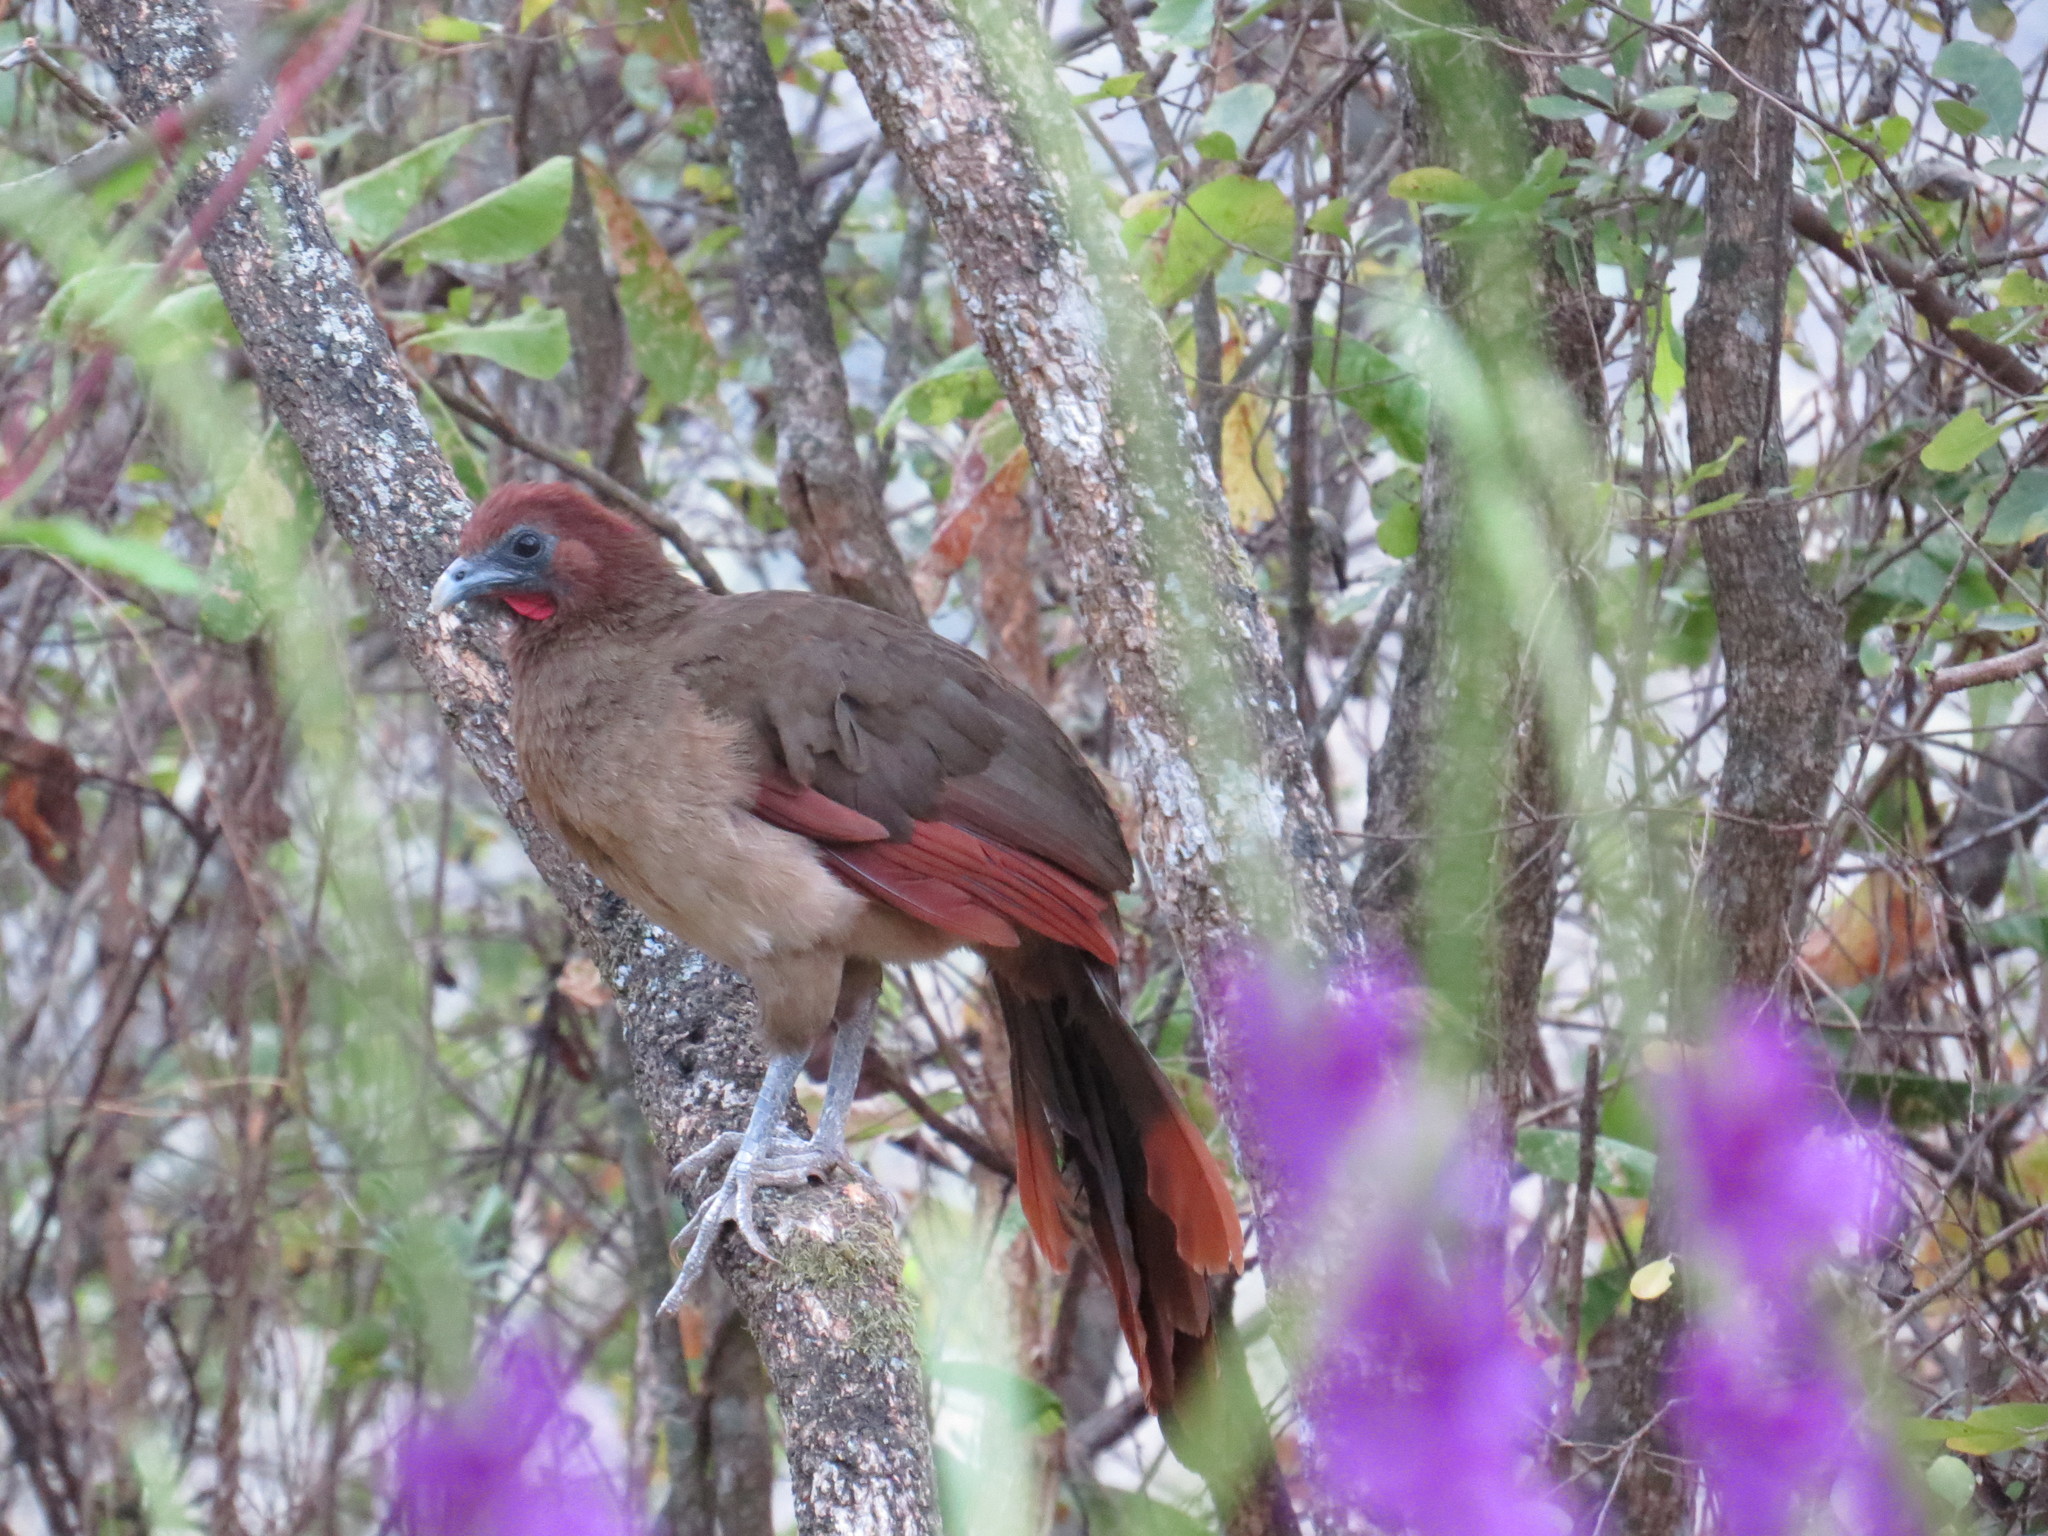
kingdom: Animalia
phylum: Chordata
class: Aves
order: Galliformes
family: Cracidae
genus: Ortalis
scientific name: Ortalis erythroptera
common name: Rufous-headed chachalaca
